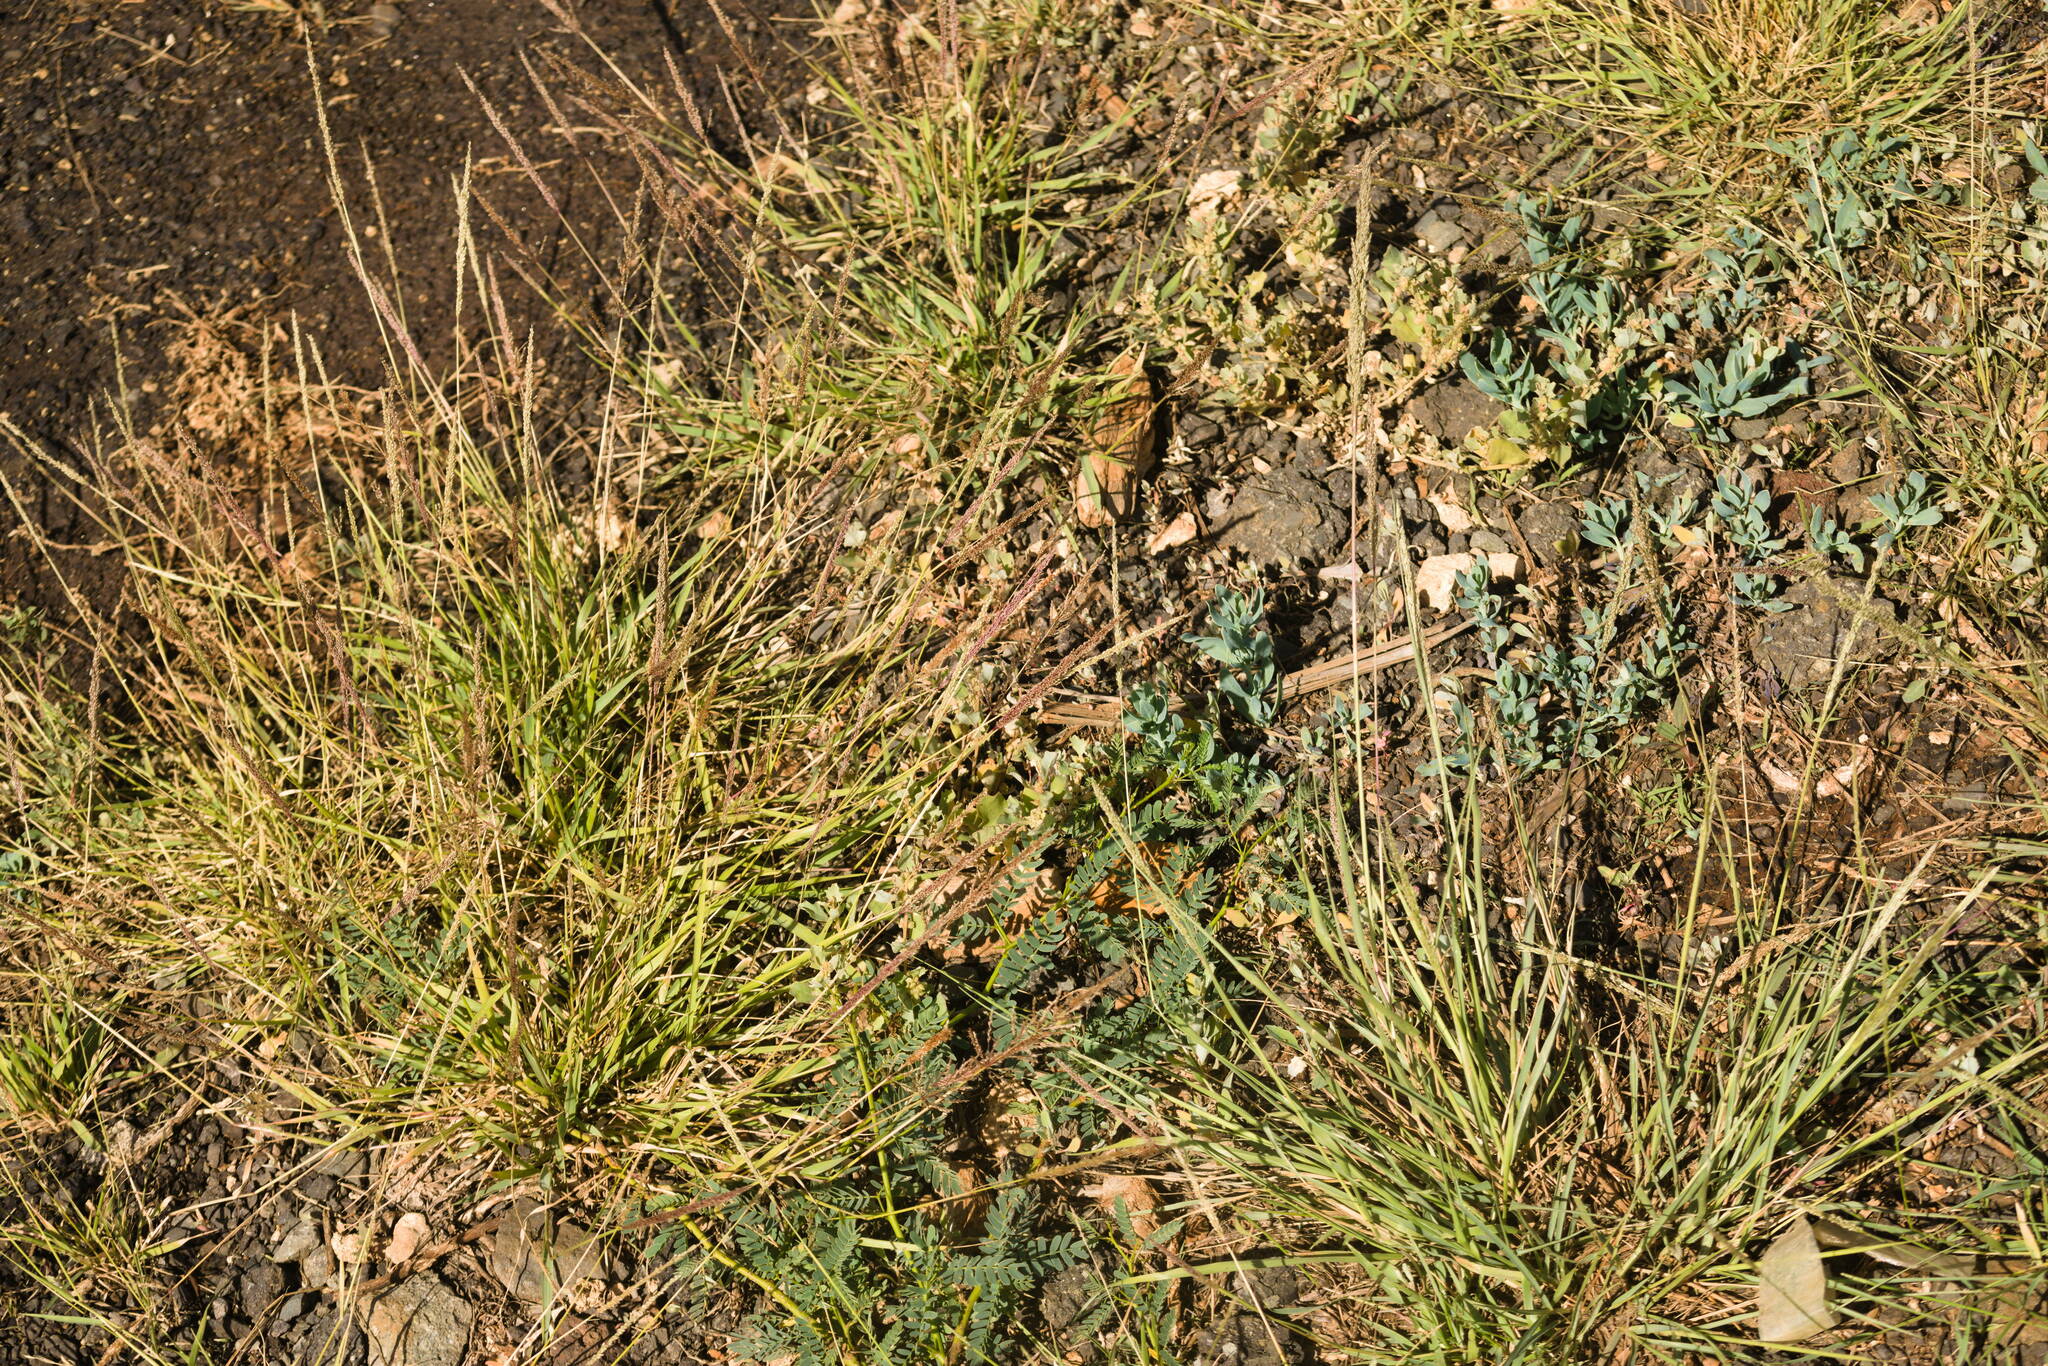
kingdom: Plantae
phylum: Tracheophyta
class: Liliopsida
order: Poales
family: Poaceae
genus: Sporobolus
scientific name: Sporobolus
